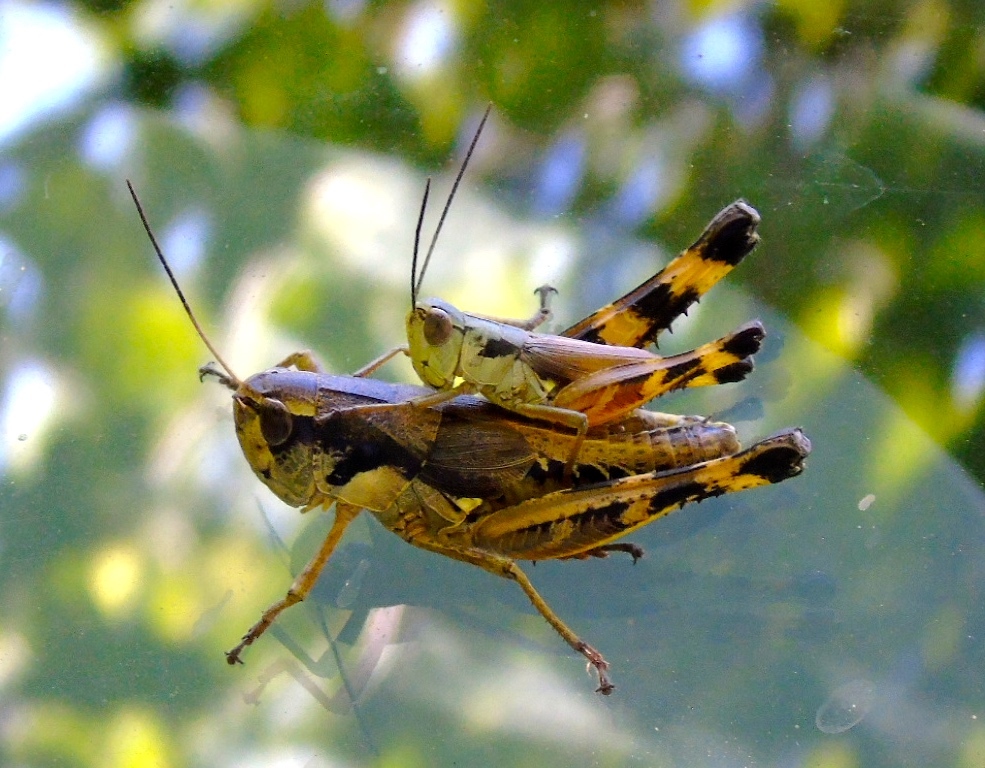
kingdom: Animalia
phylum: Arthropoda
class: Insecta
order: Orthoptera
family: Acrididae
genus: Boopedon
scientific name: Boopedon flaviventris
